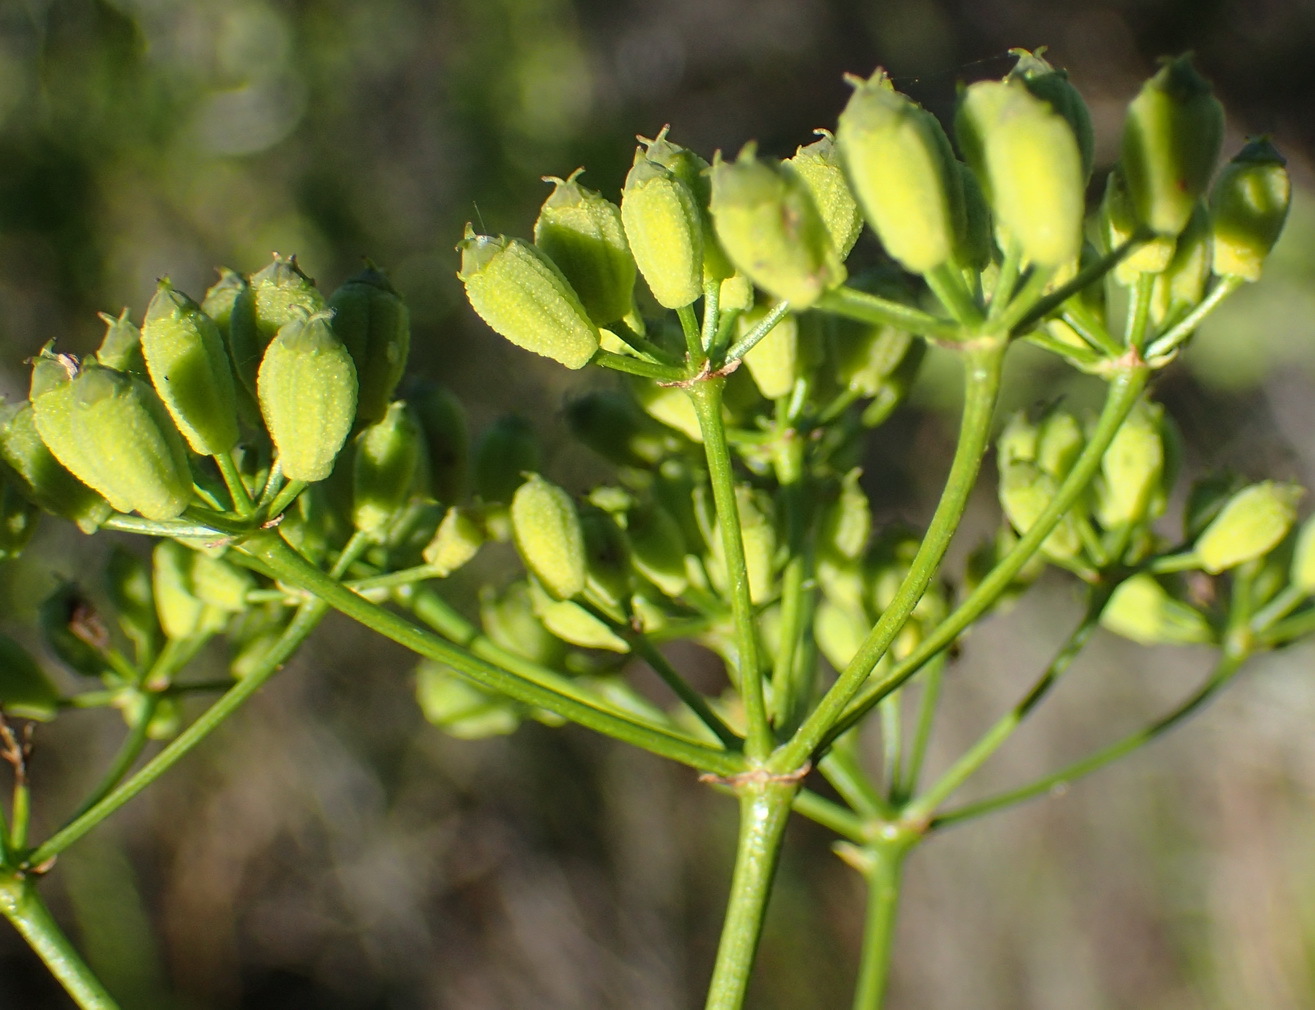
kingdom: Plantae
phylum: Tracheophyta
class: Magnoliopsida
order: Apiales
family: Apiaceae
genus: Anginon
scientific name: Anginon difforme
